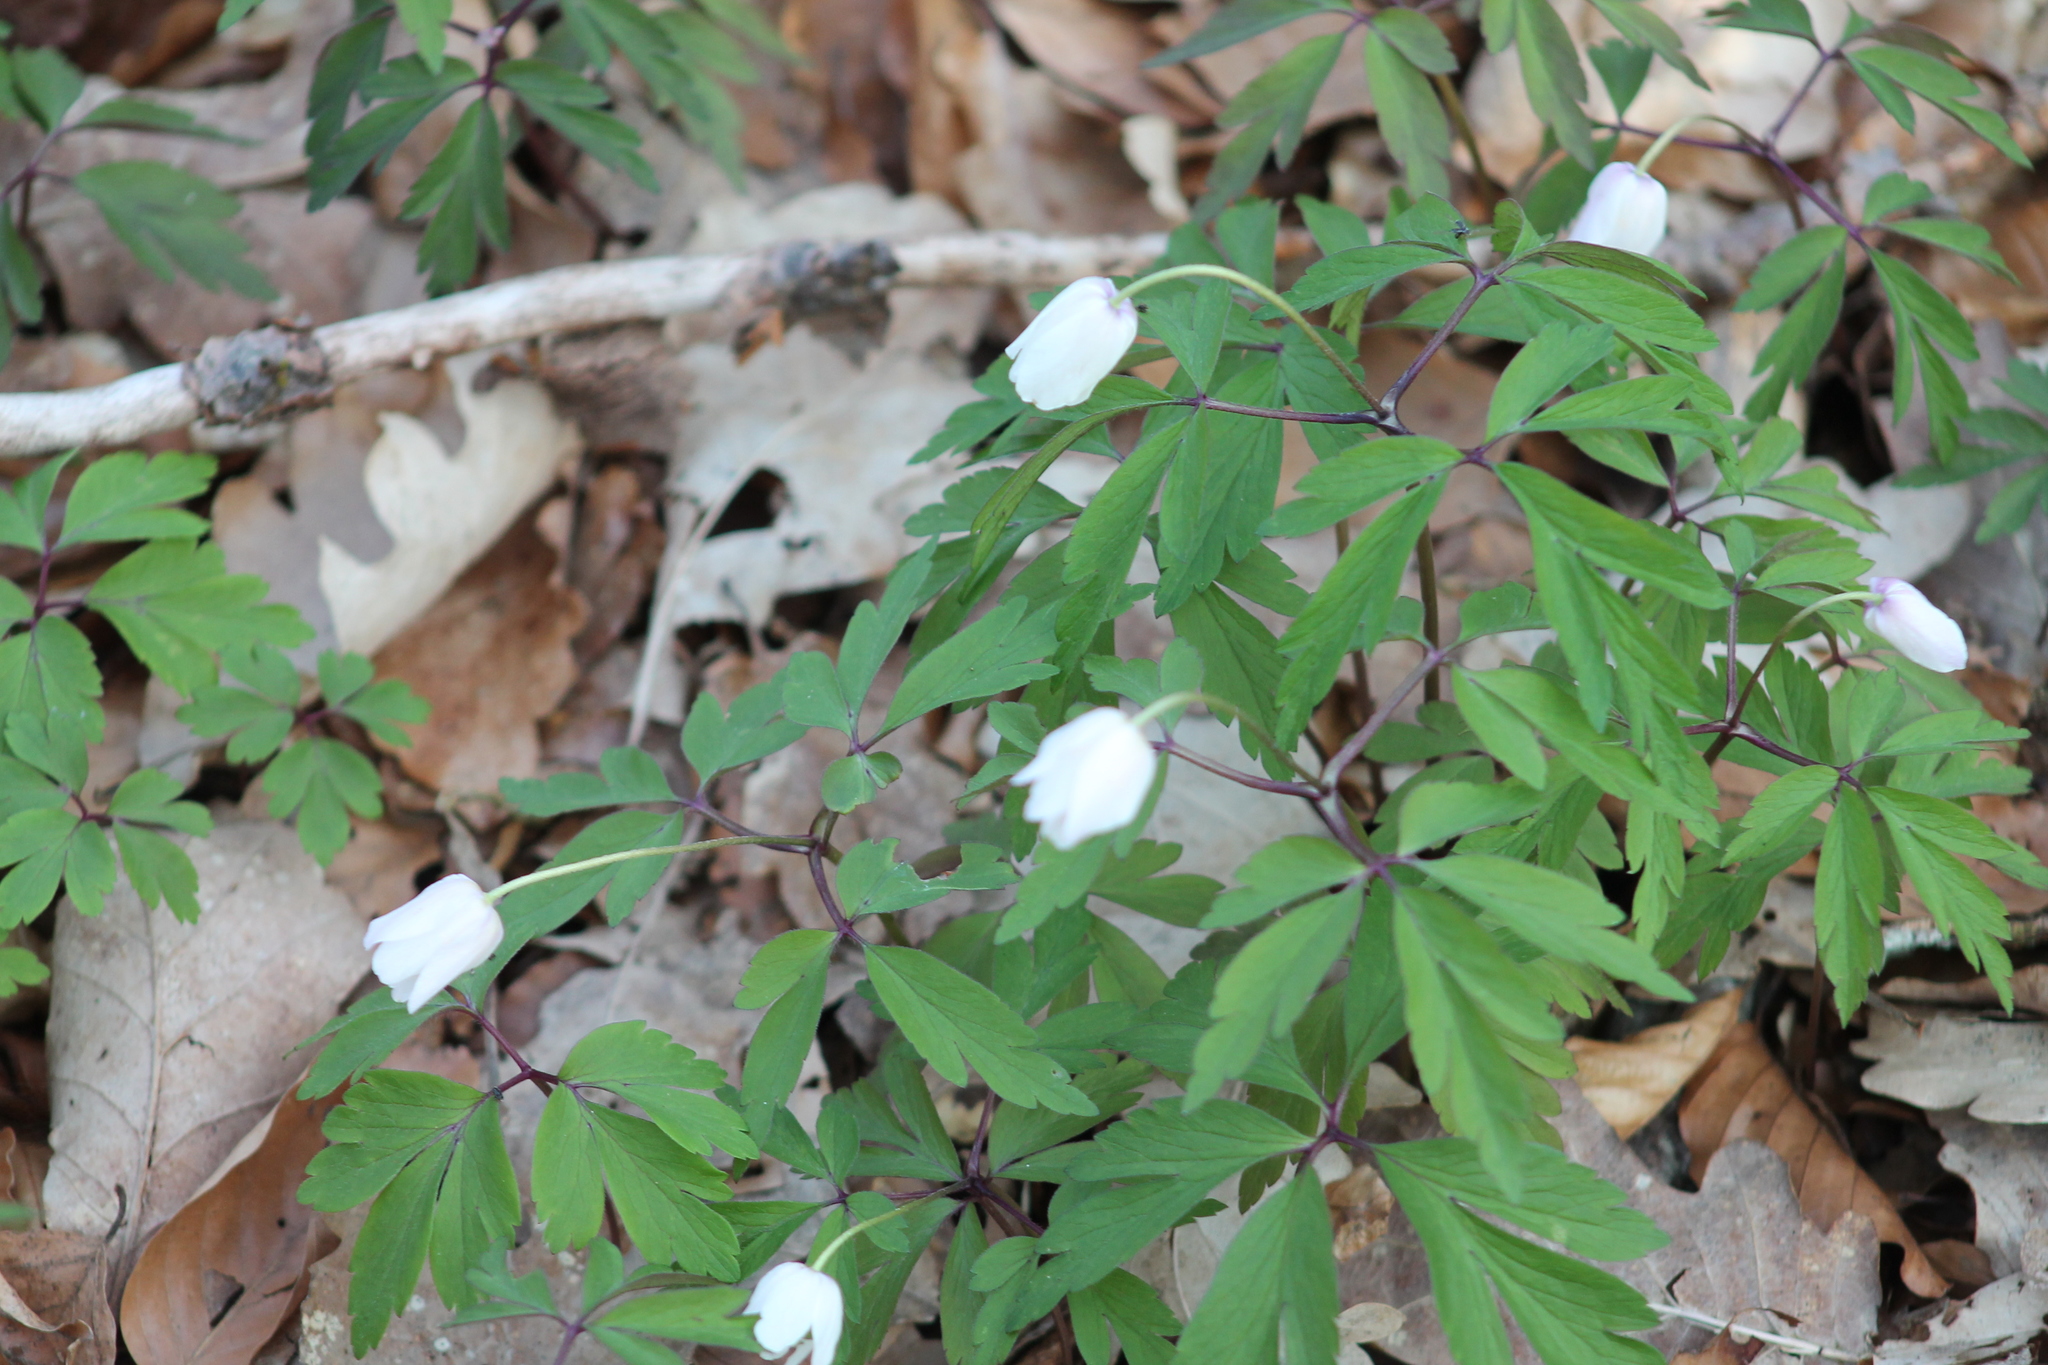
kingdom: Plantae
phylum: Tracheophyta
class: Magnoliopsida
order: Ranunculales
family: Ranunculaceae
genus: Anemone
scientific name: Anemone nemorosa
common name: Wood anemone
